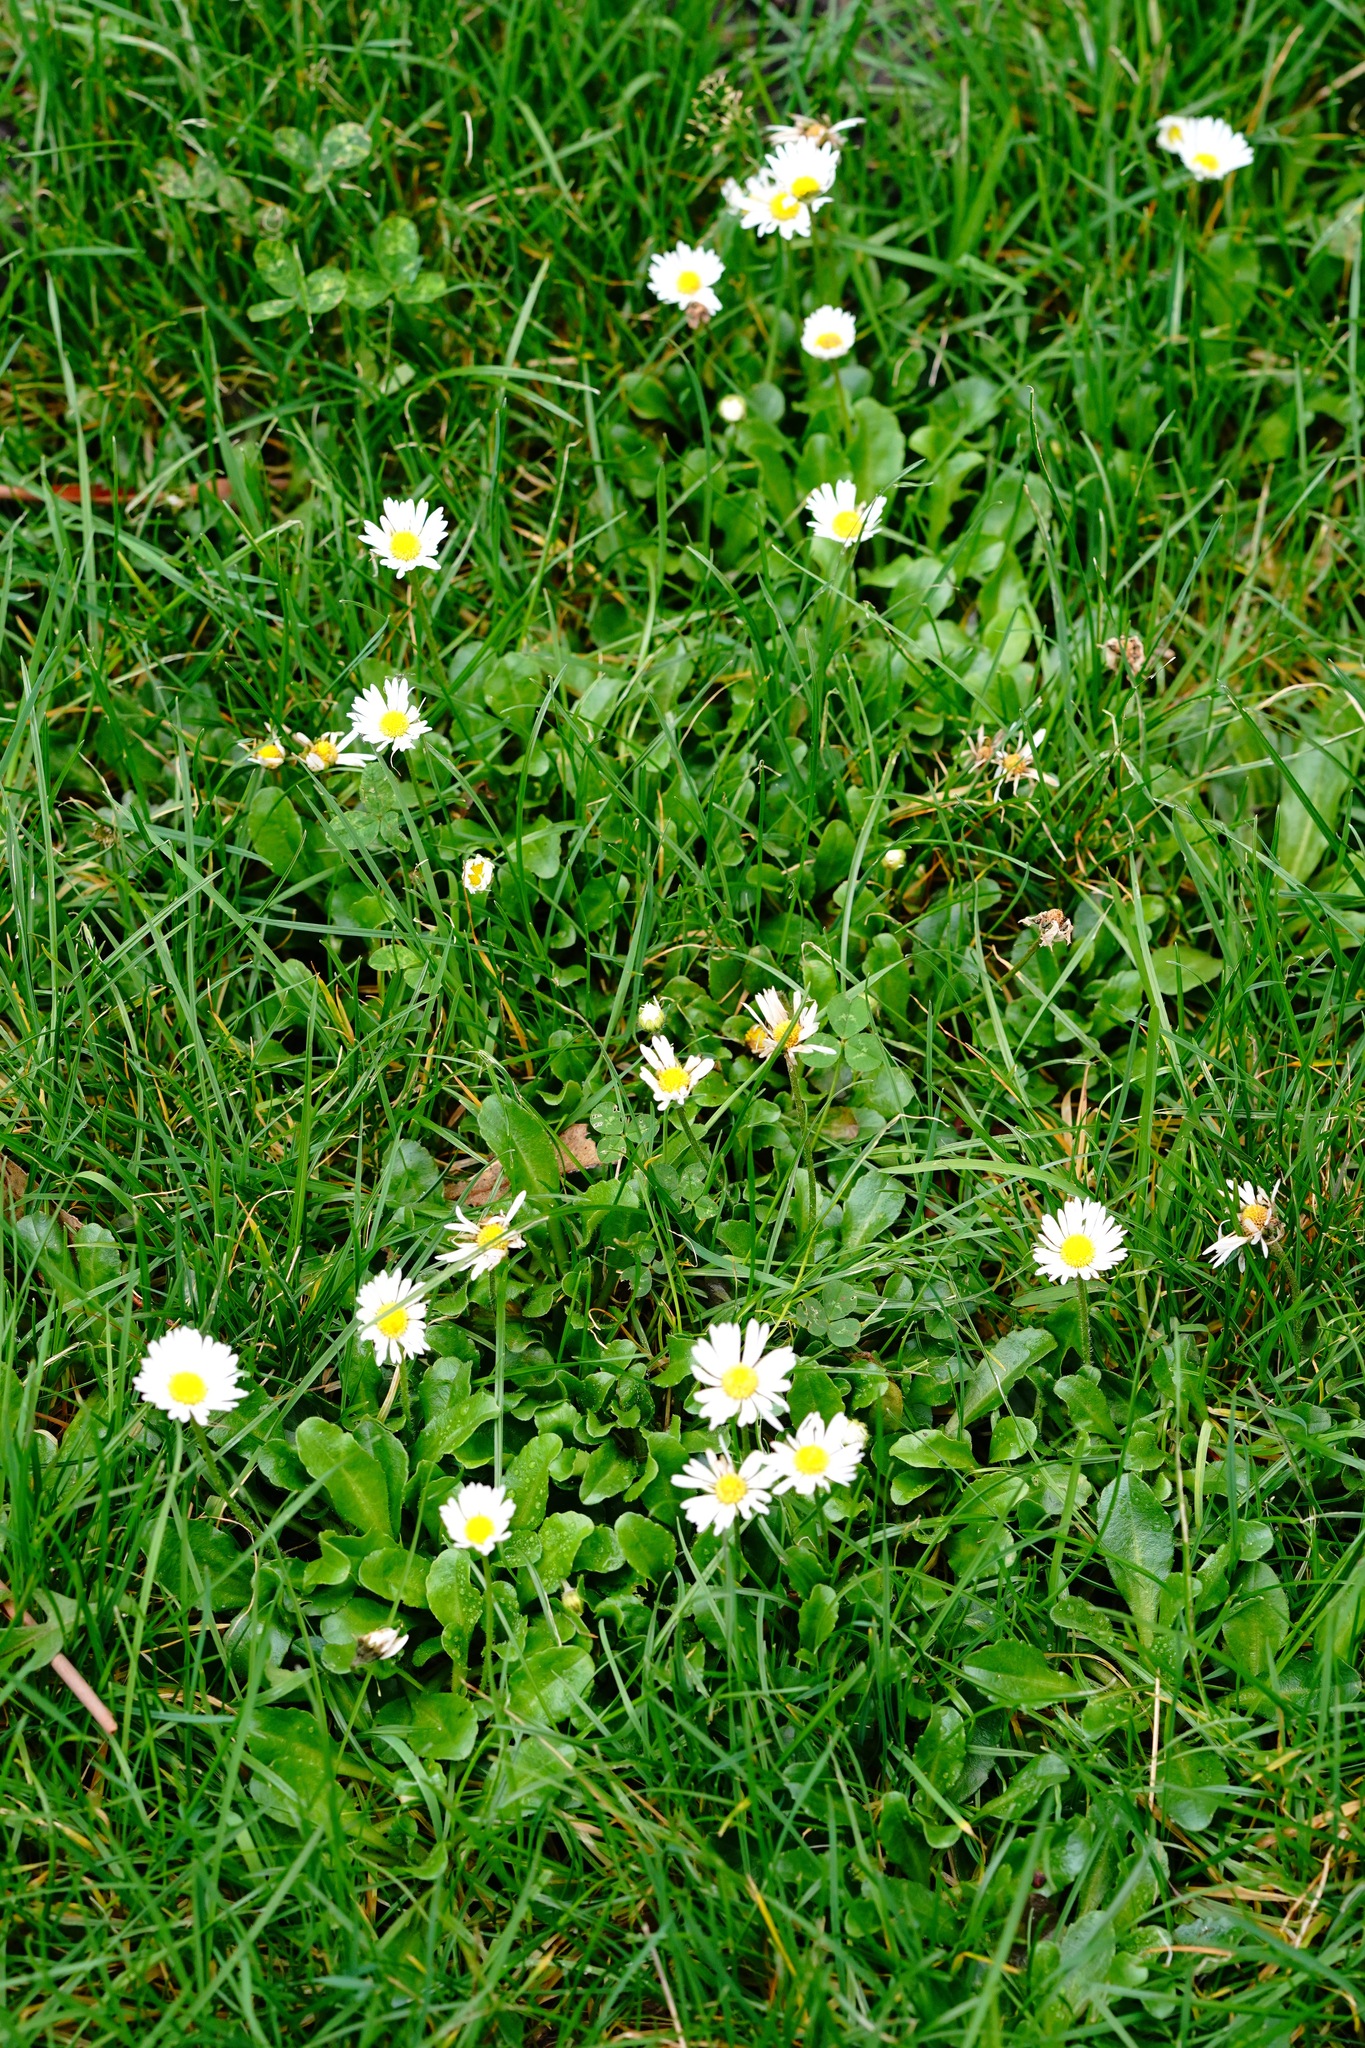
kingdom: Plantae
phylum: Tracheophyta
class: Magnoliopsida
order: Asterales
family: Asteraceae
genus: Bellis
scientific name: Bellis perennis
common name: Lawndaisy
